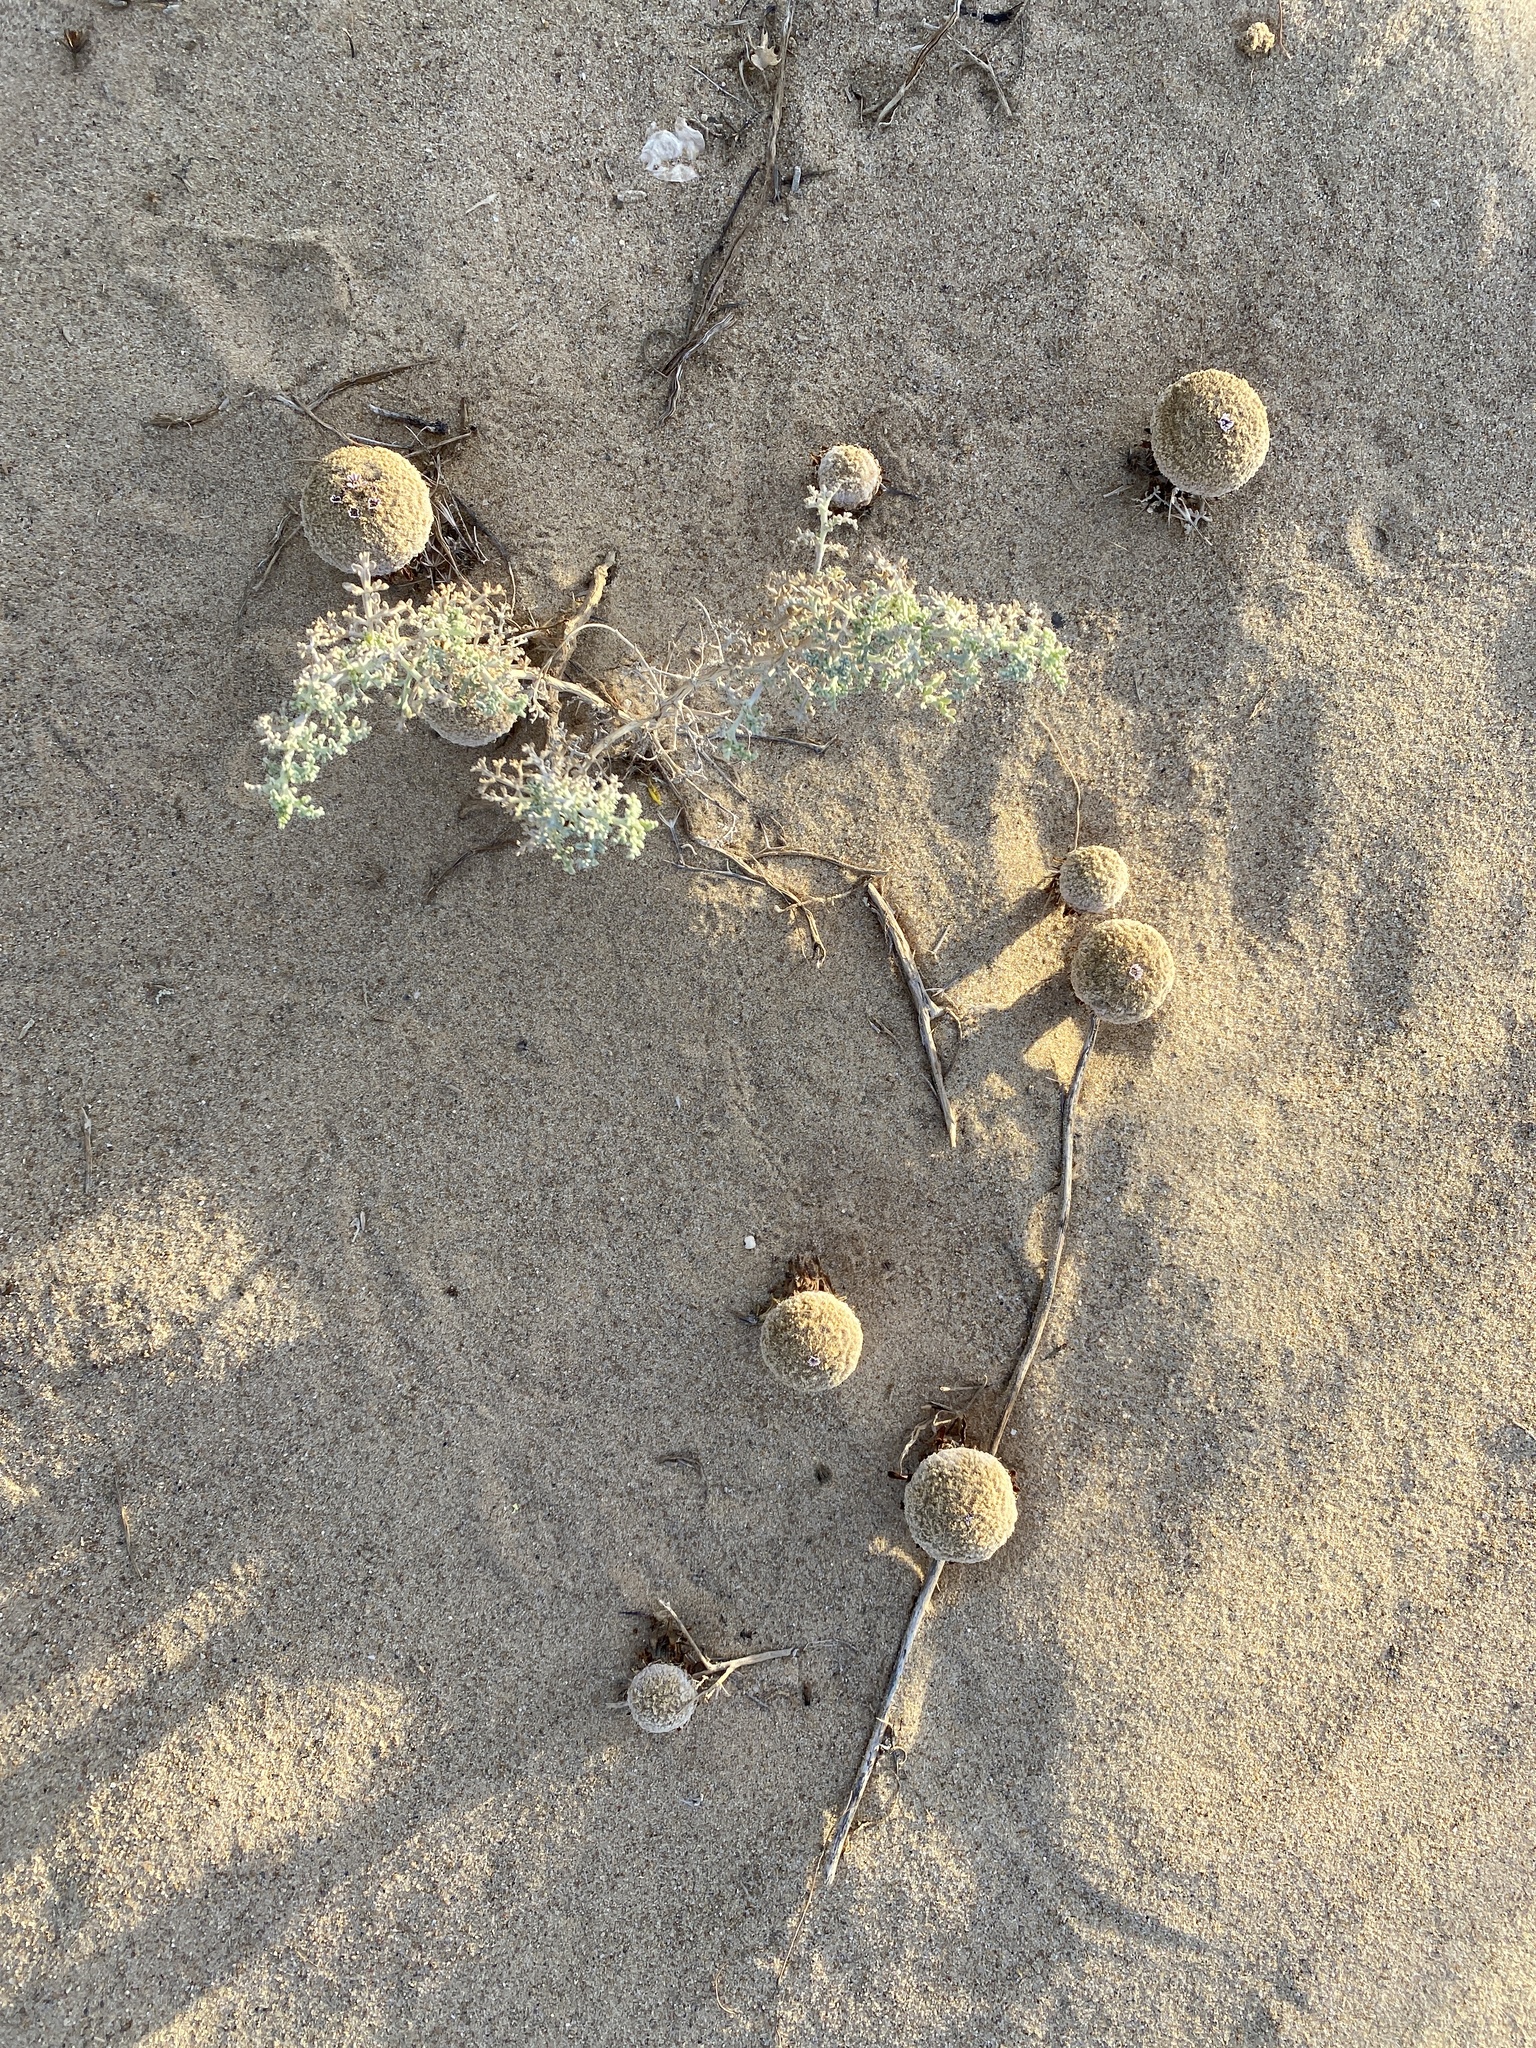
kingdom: Plantae
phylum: Tracheophyta
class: Magnoliopsida
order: Boraginales
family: Lennoaceae
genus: Pholisma
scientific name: Pholisma sonorae
